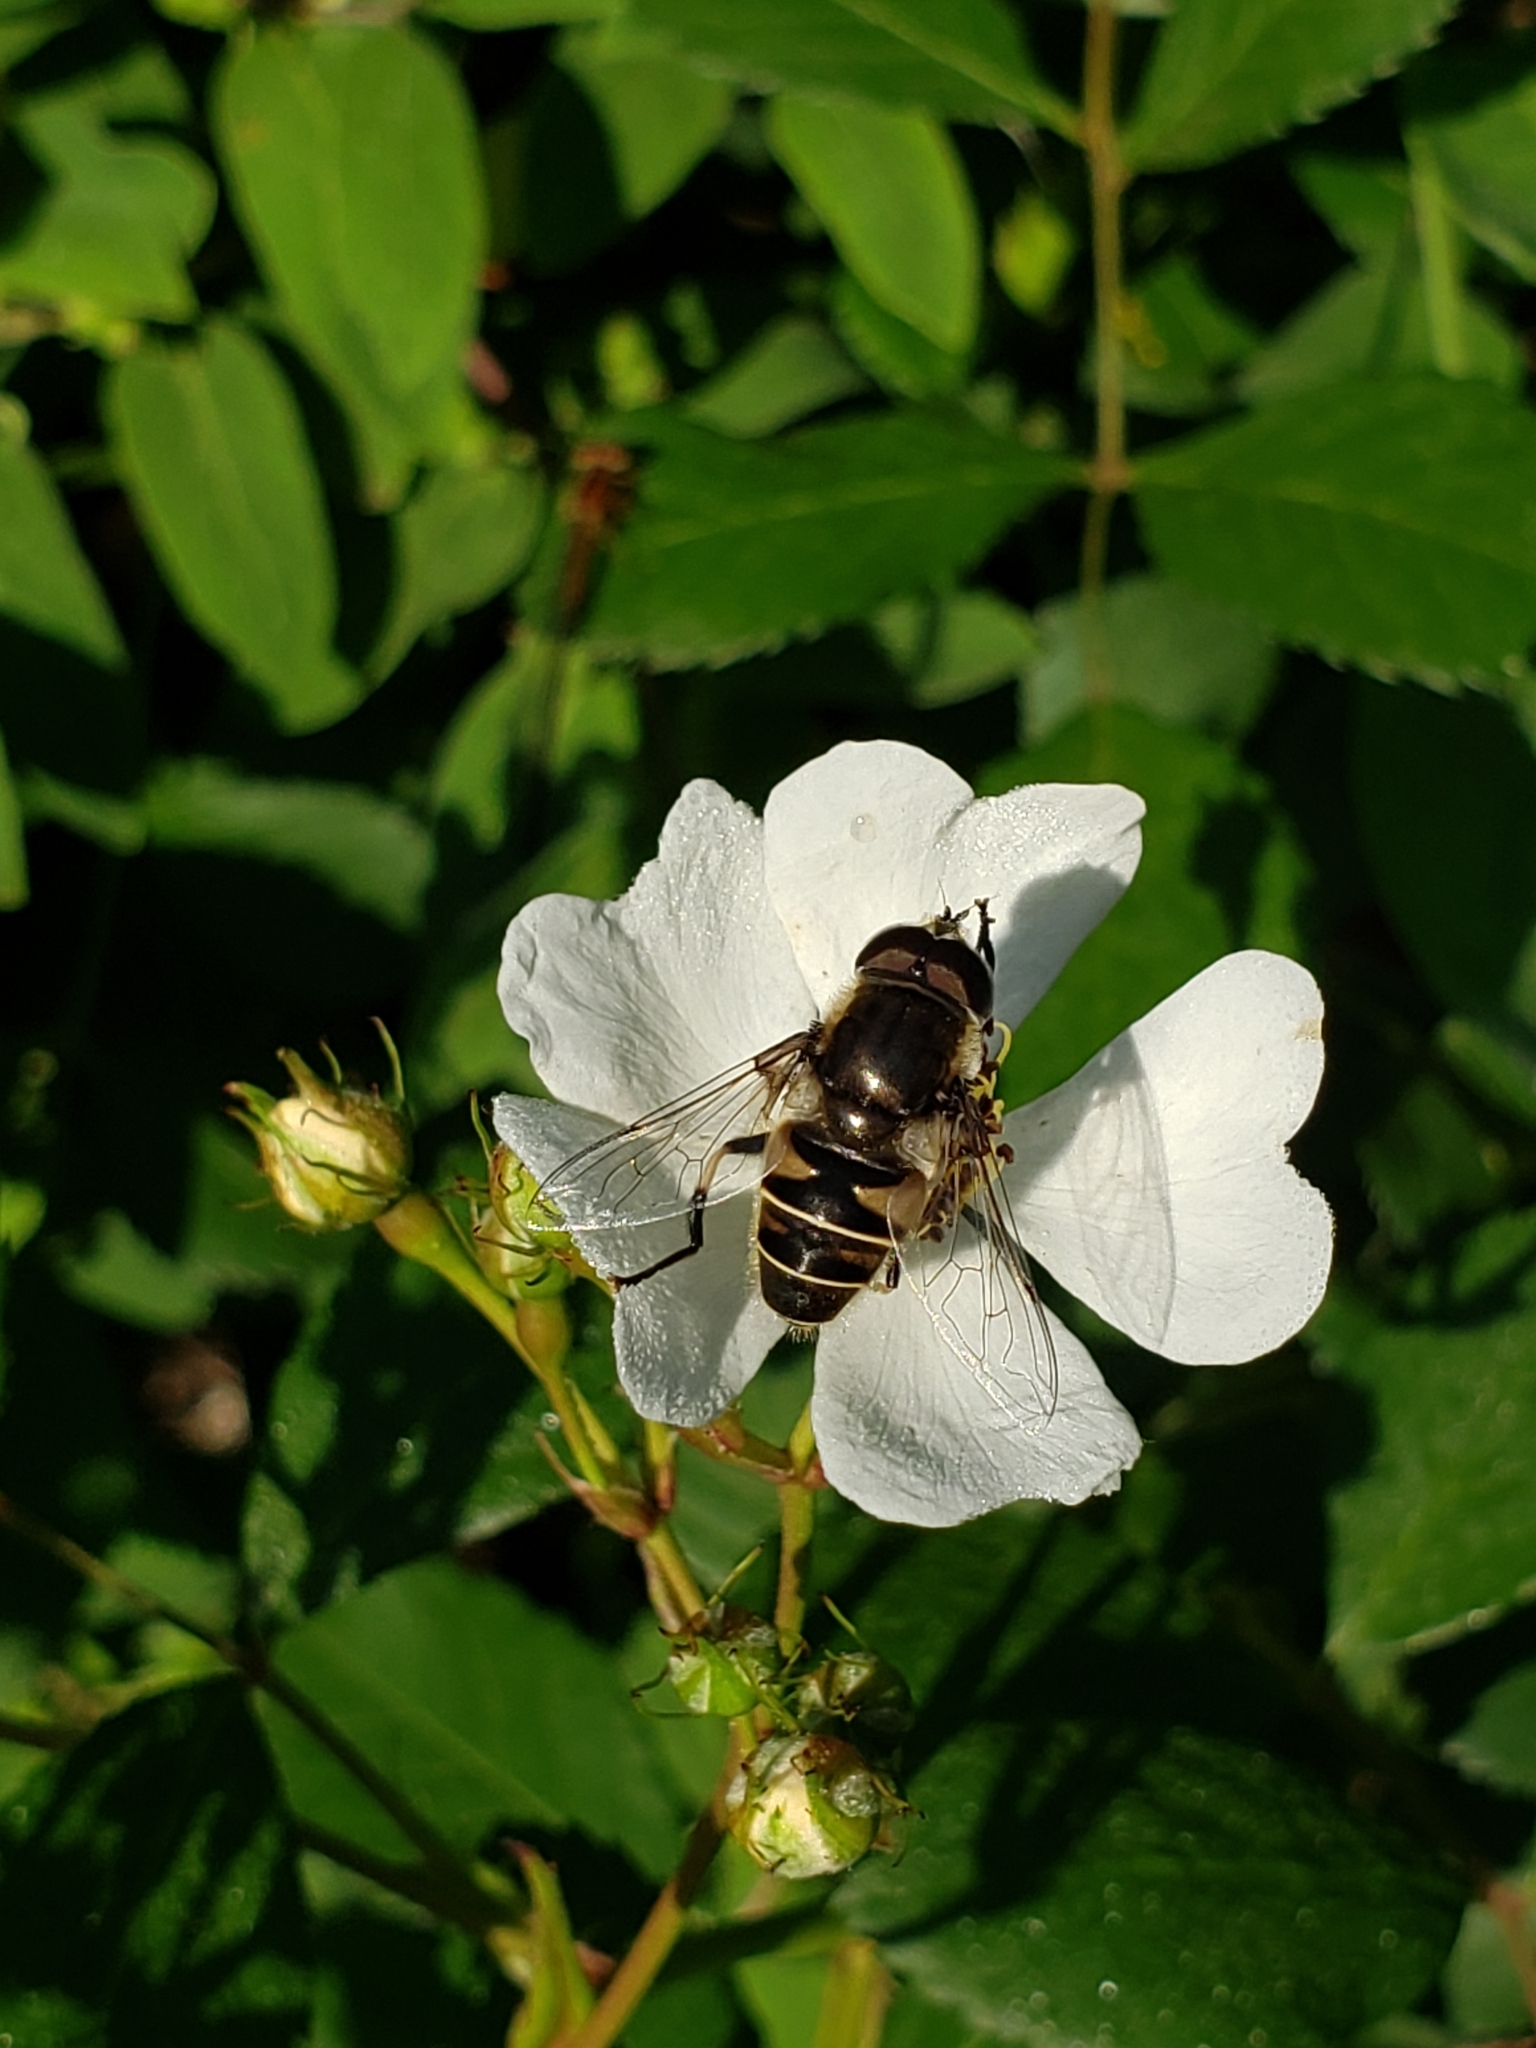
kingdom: Animalia
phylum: Arthropoda
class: Insecta
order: Diptera
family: Syrphidae
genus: Eristalis
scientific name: Eristalis dimidiata
